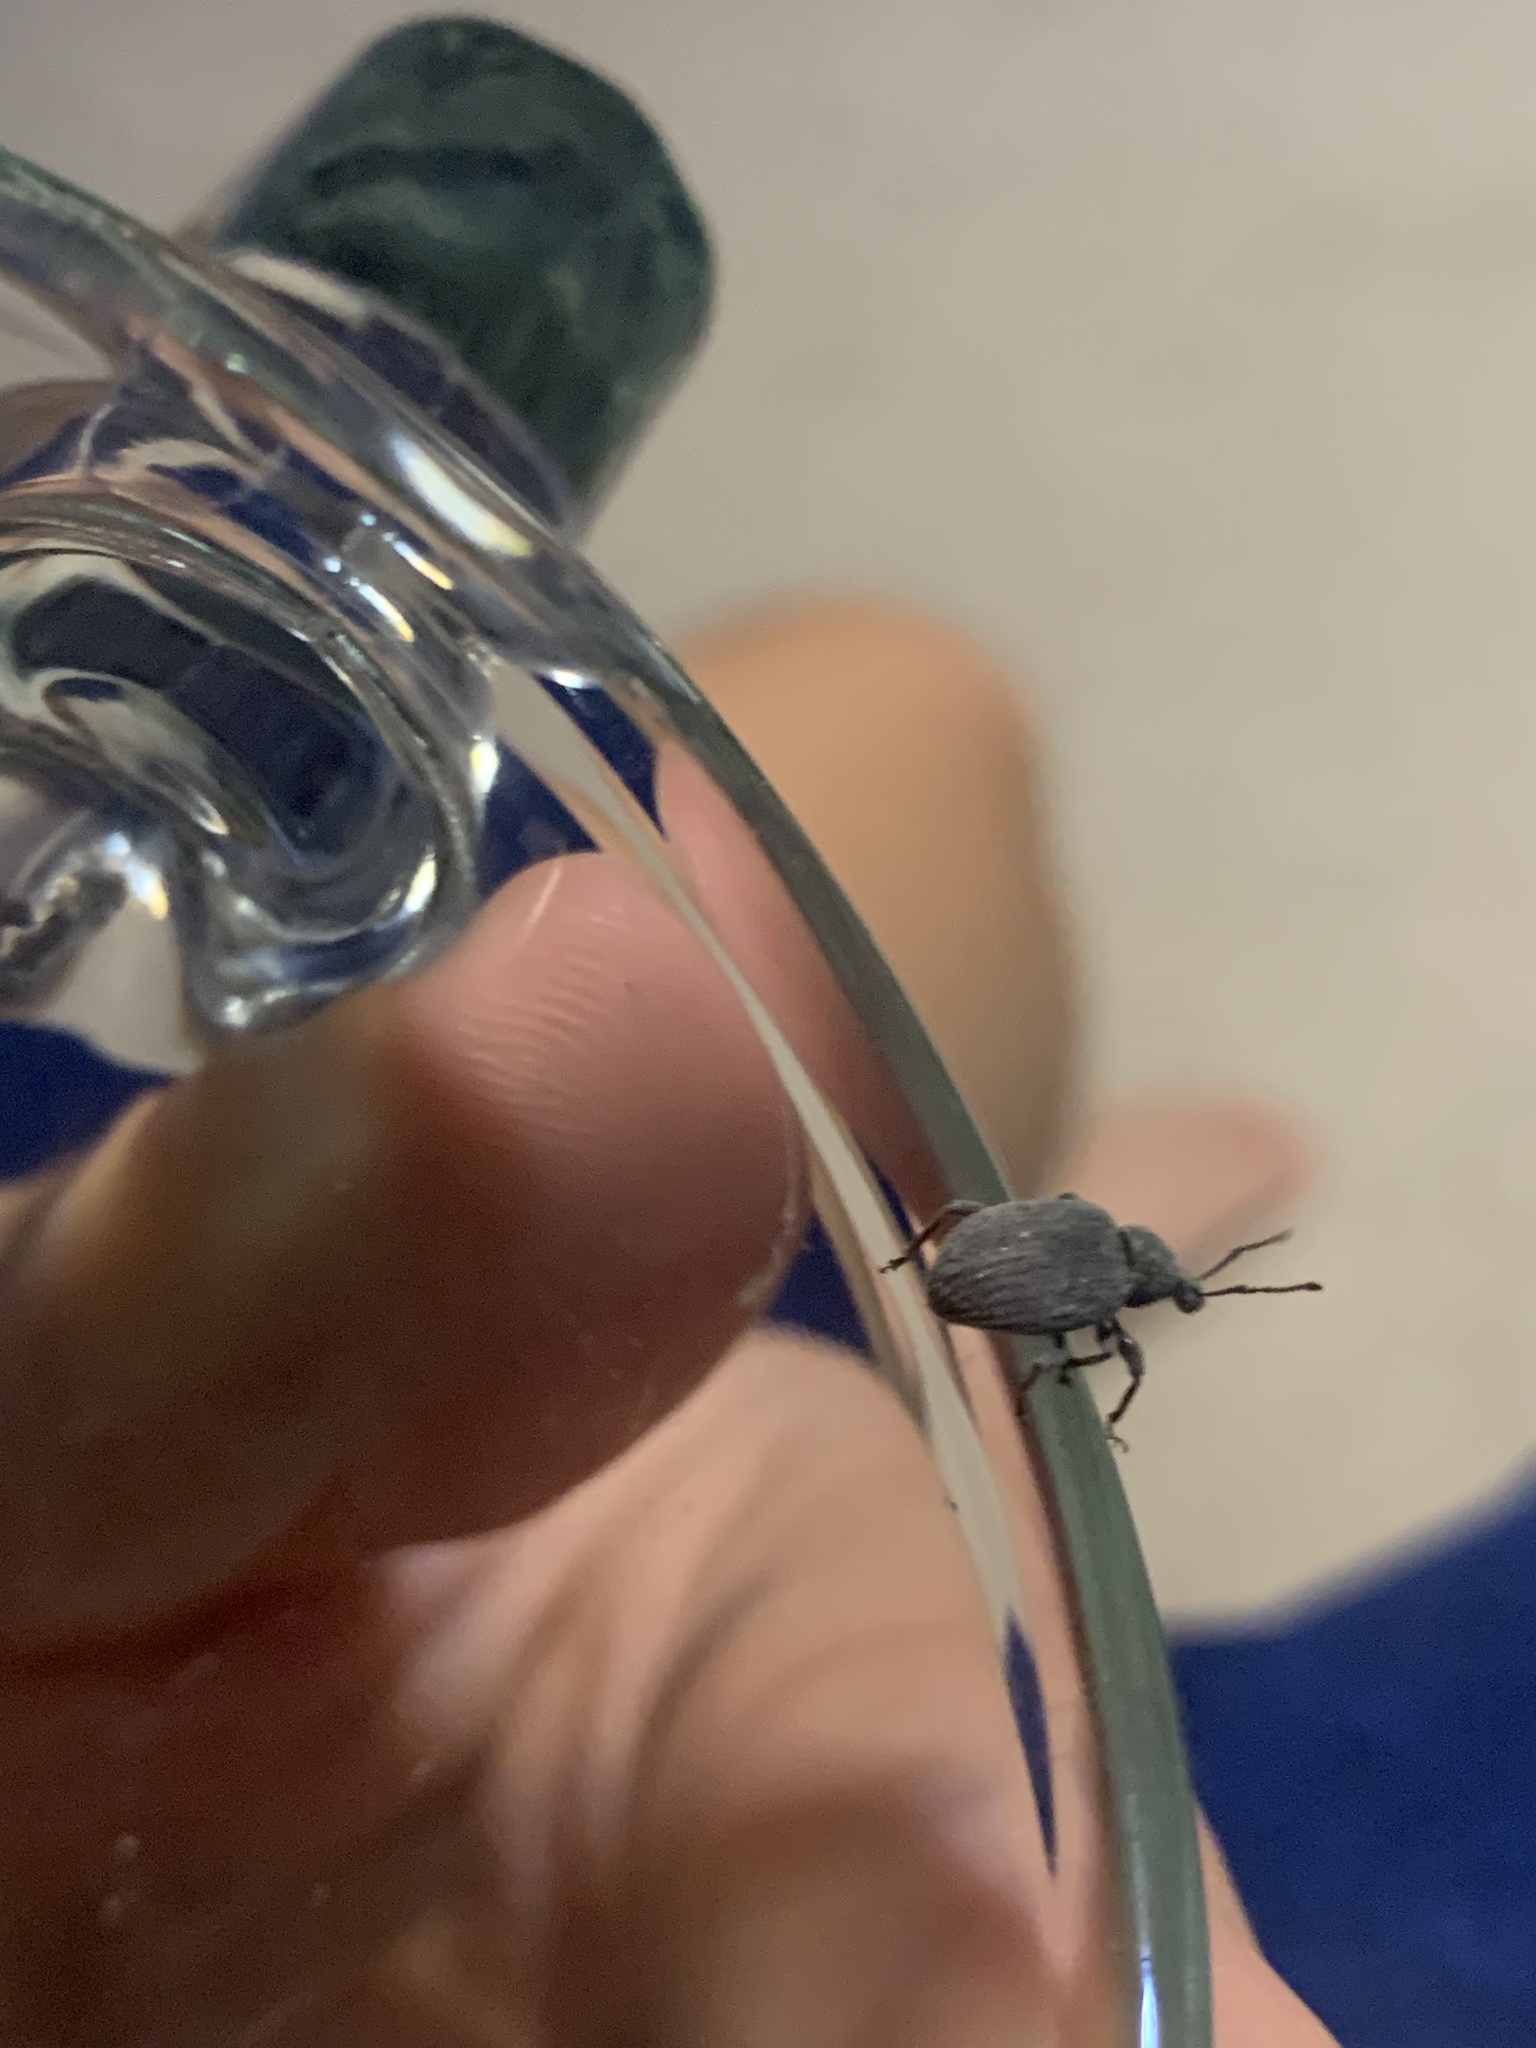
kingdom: Animalia
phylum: Arthropoda
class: Insecta
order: Coleoptera
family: Curculionidae
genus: Otiorhynchus
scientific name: Otiorhynchus rugosostriatus
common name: Weevil
